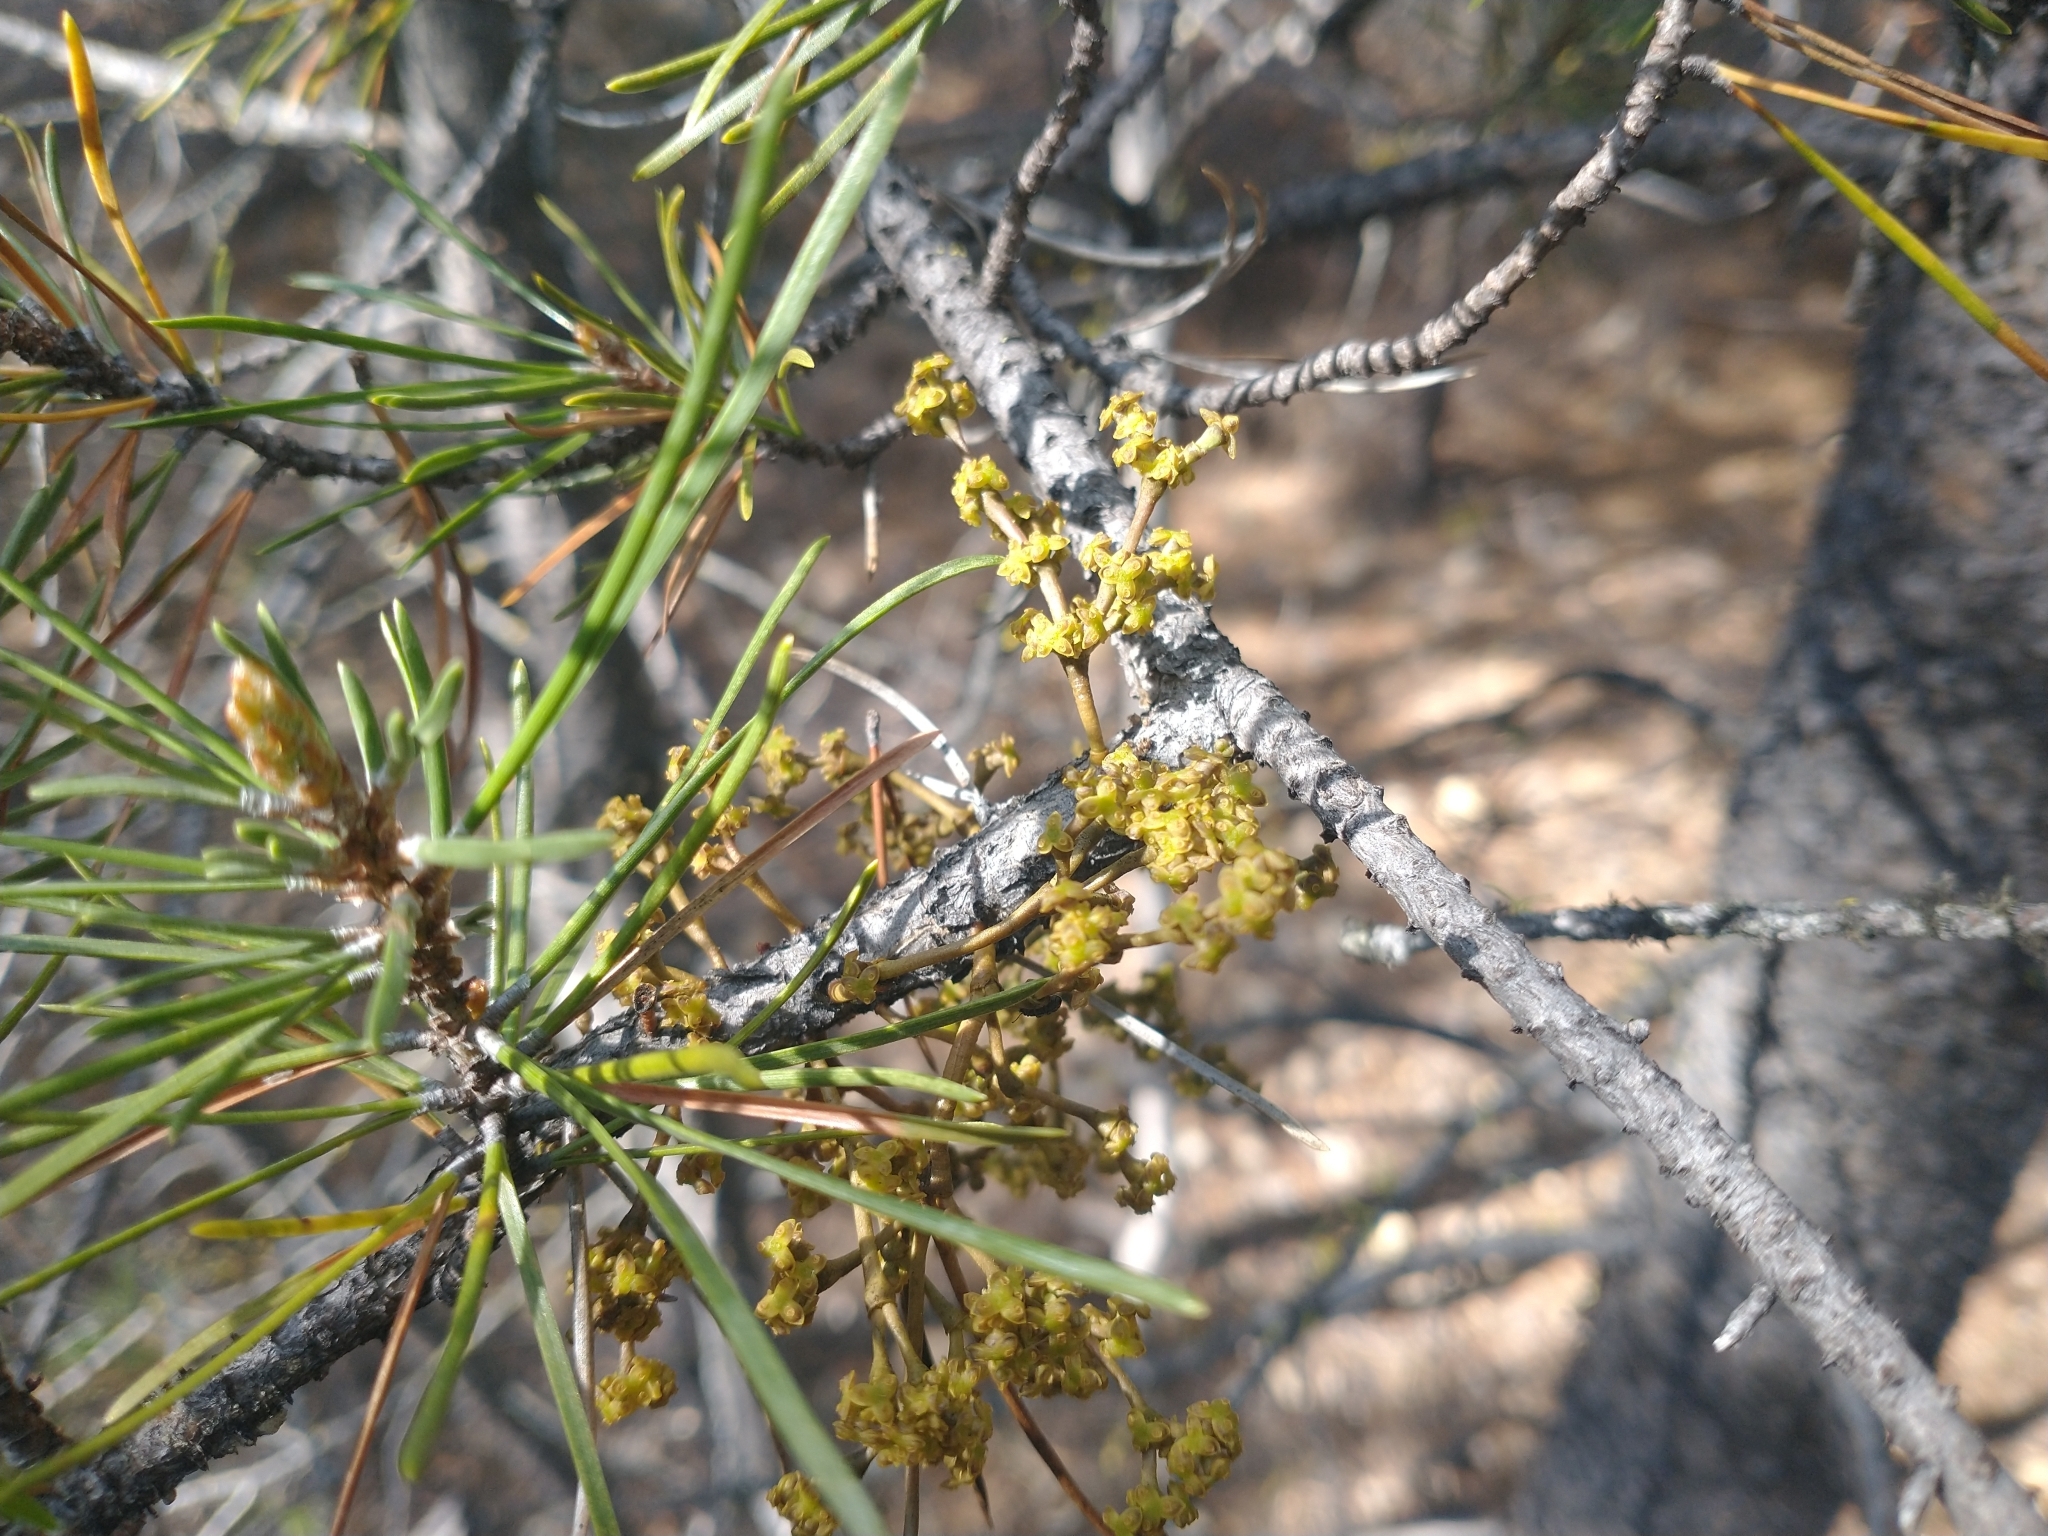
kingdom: Plantae
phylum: Tracheophyta
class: Magnoliopsida
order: Santalales
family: Viscaceae
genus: Arceuthobium
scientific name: Arceuthobium americanum
